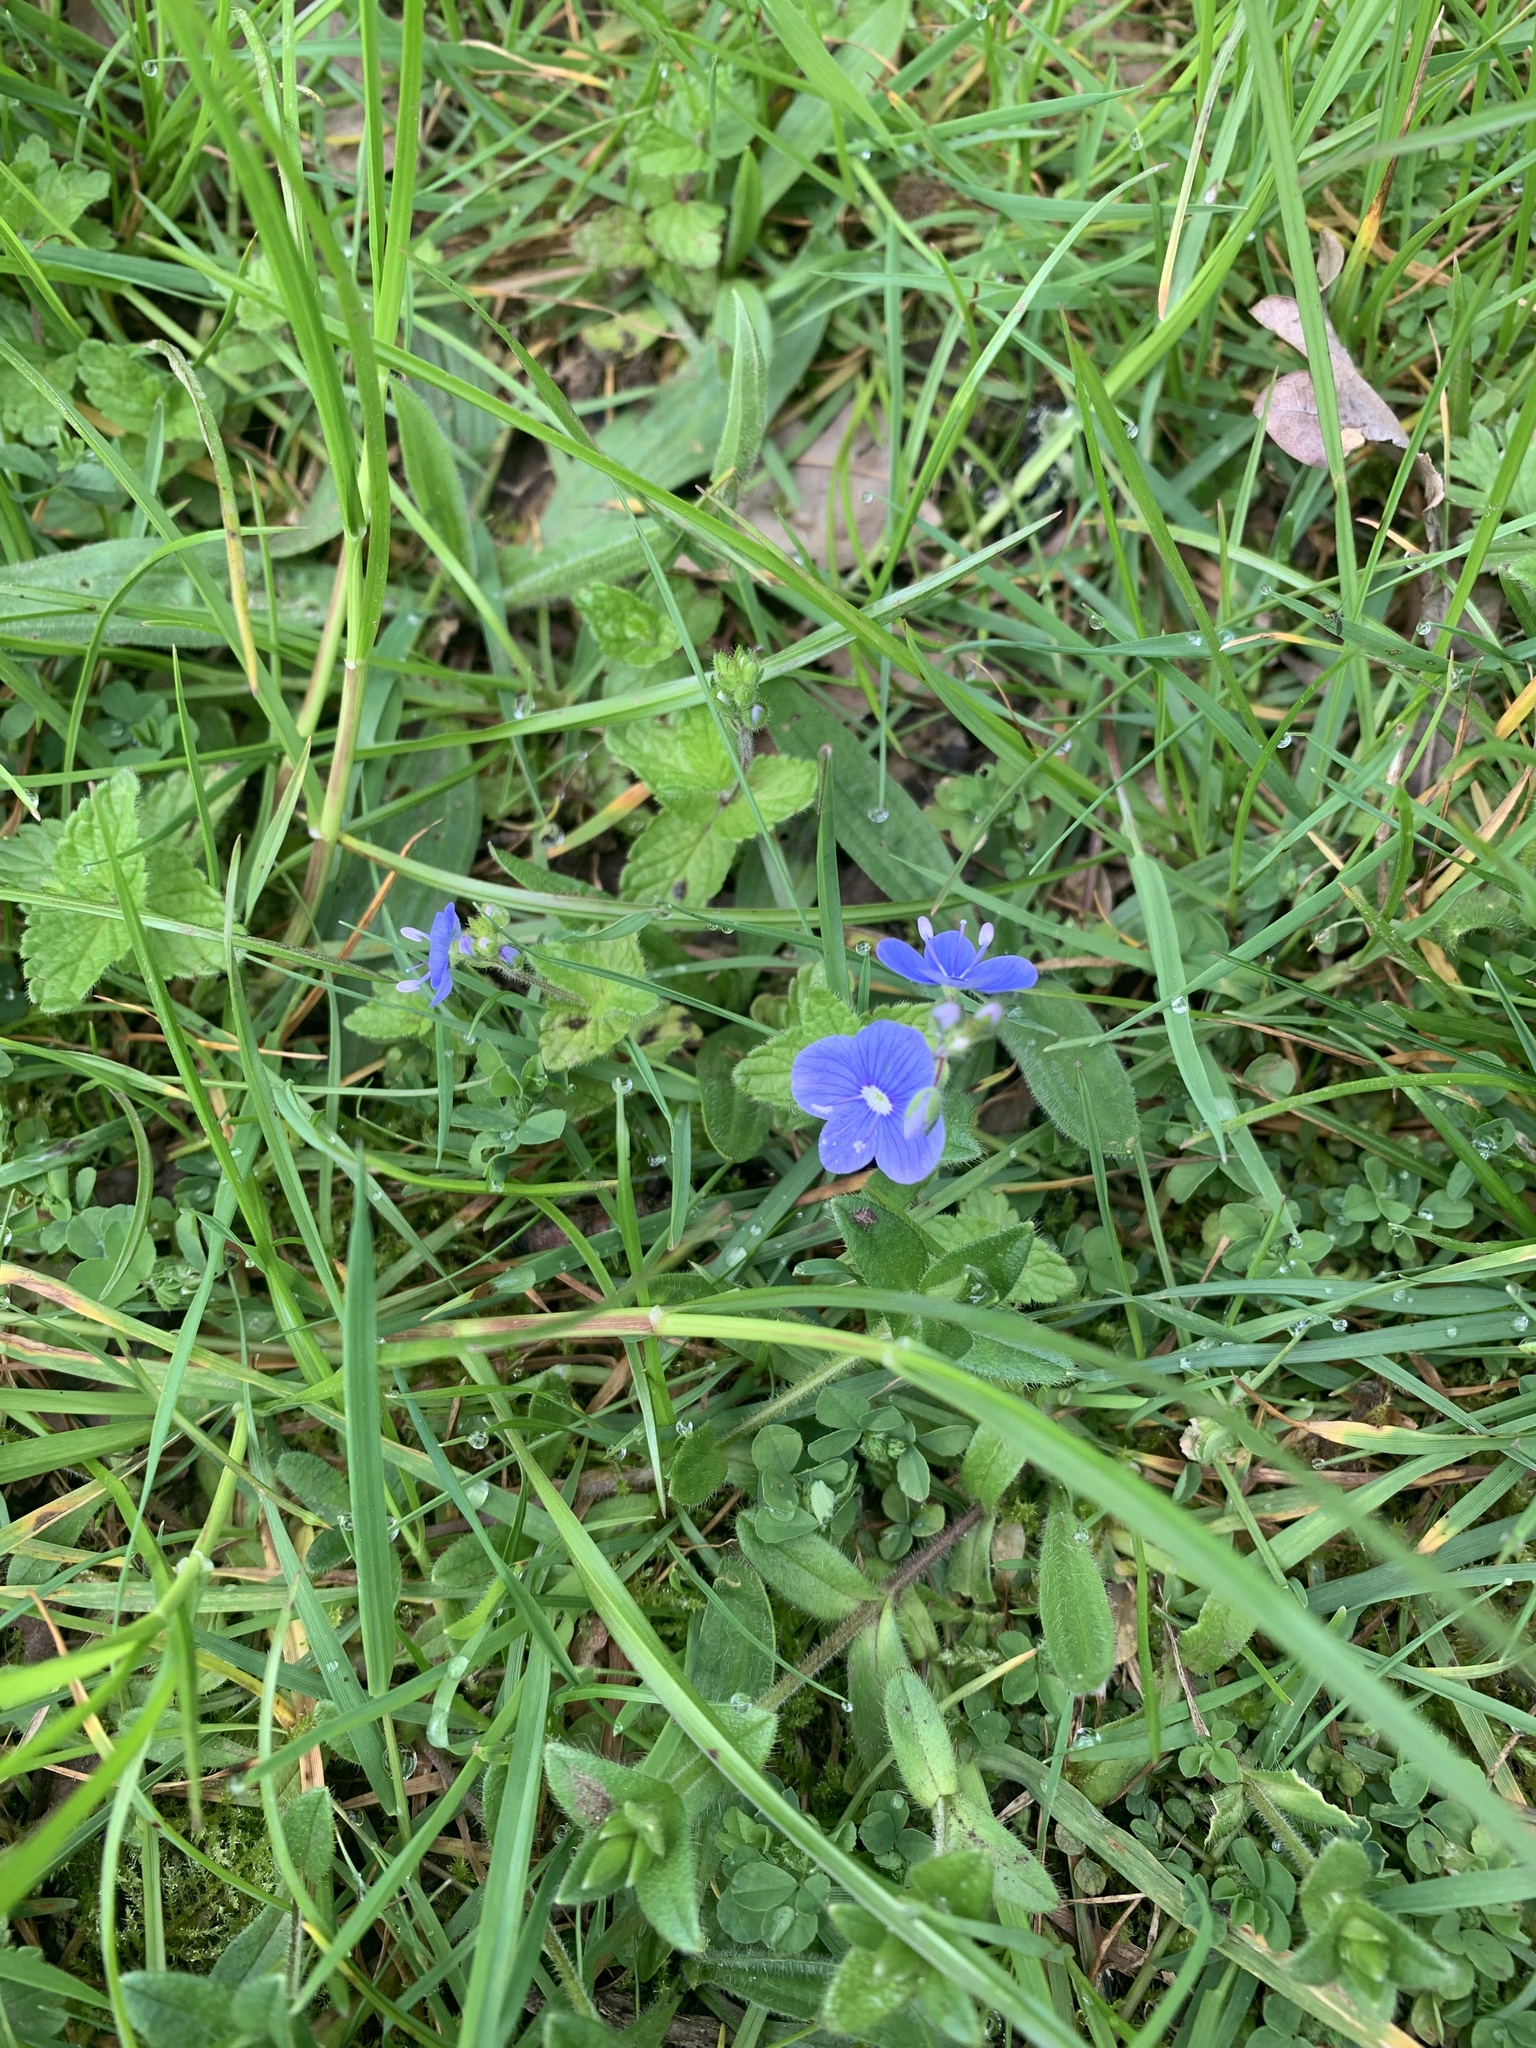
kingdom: Plantae
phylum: Tracheophyta
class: Magnoliopsida
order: Lamiales
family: Plantaginaceae
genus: Veronica
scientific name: Veronica chamaedrys
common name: Germander speedwell
